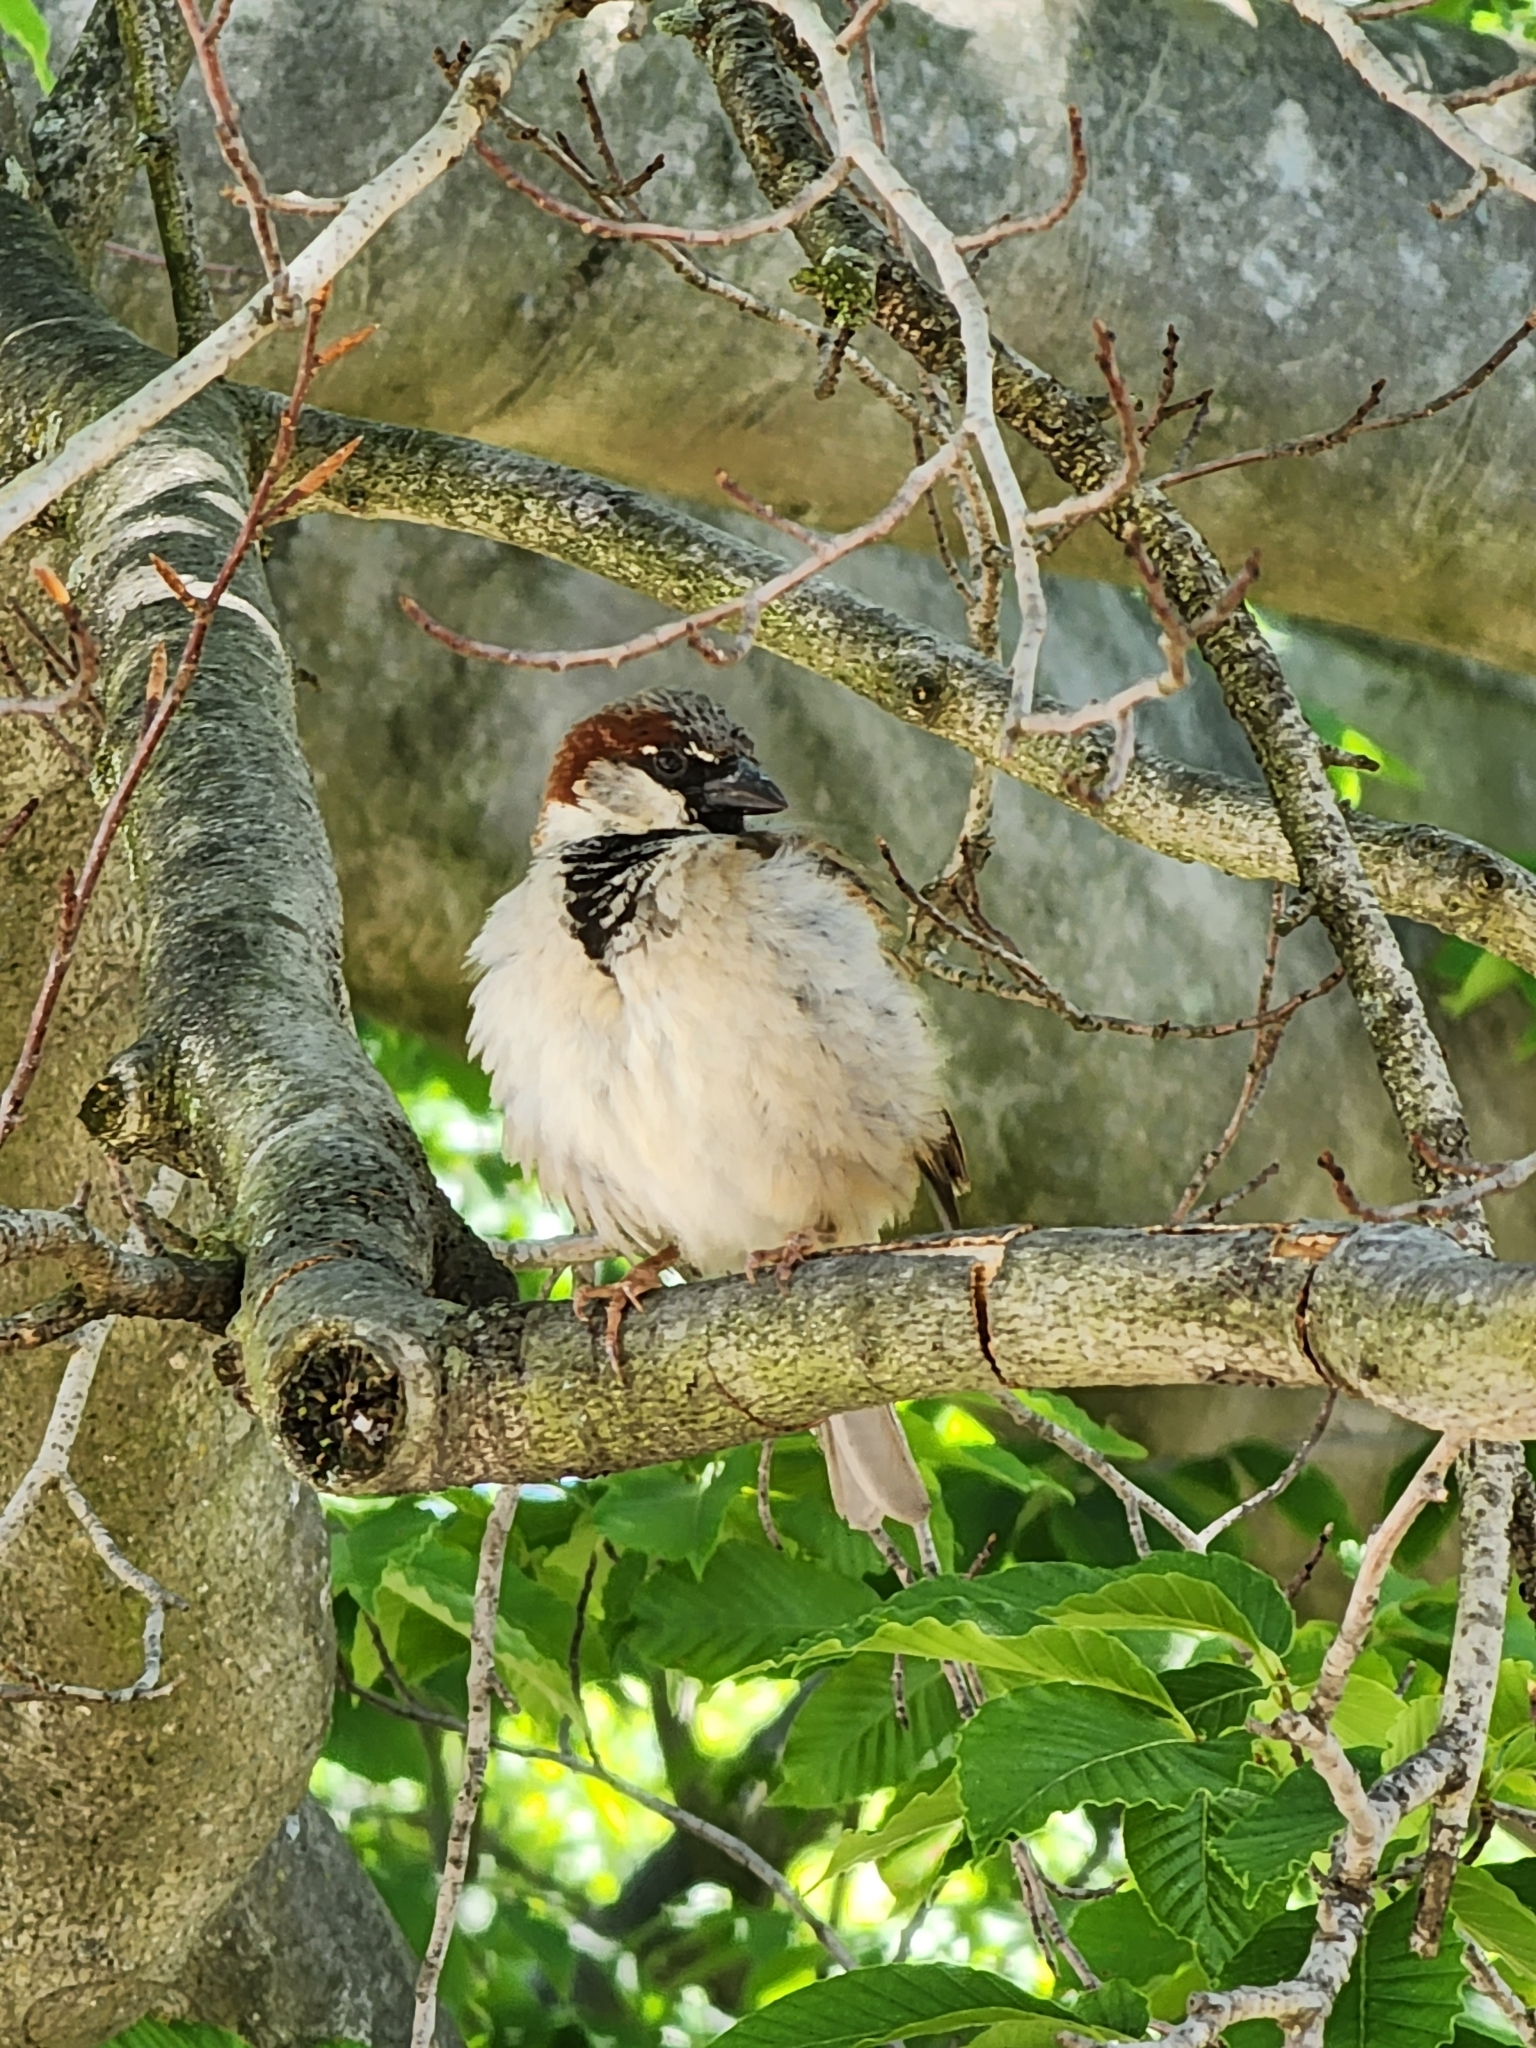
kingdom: Animalia
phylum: Chordata
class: Aves
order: Passeriformes
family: Passeridae
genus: Passer
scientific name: Passer domesticus
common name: House sparrow
